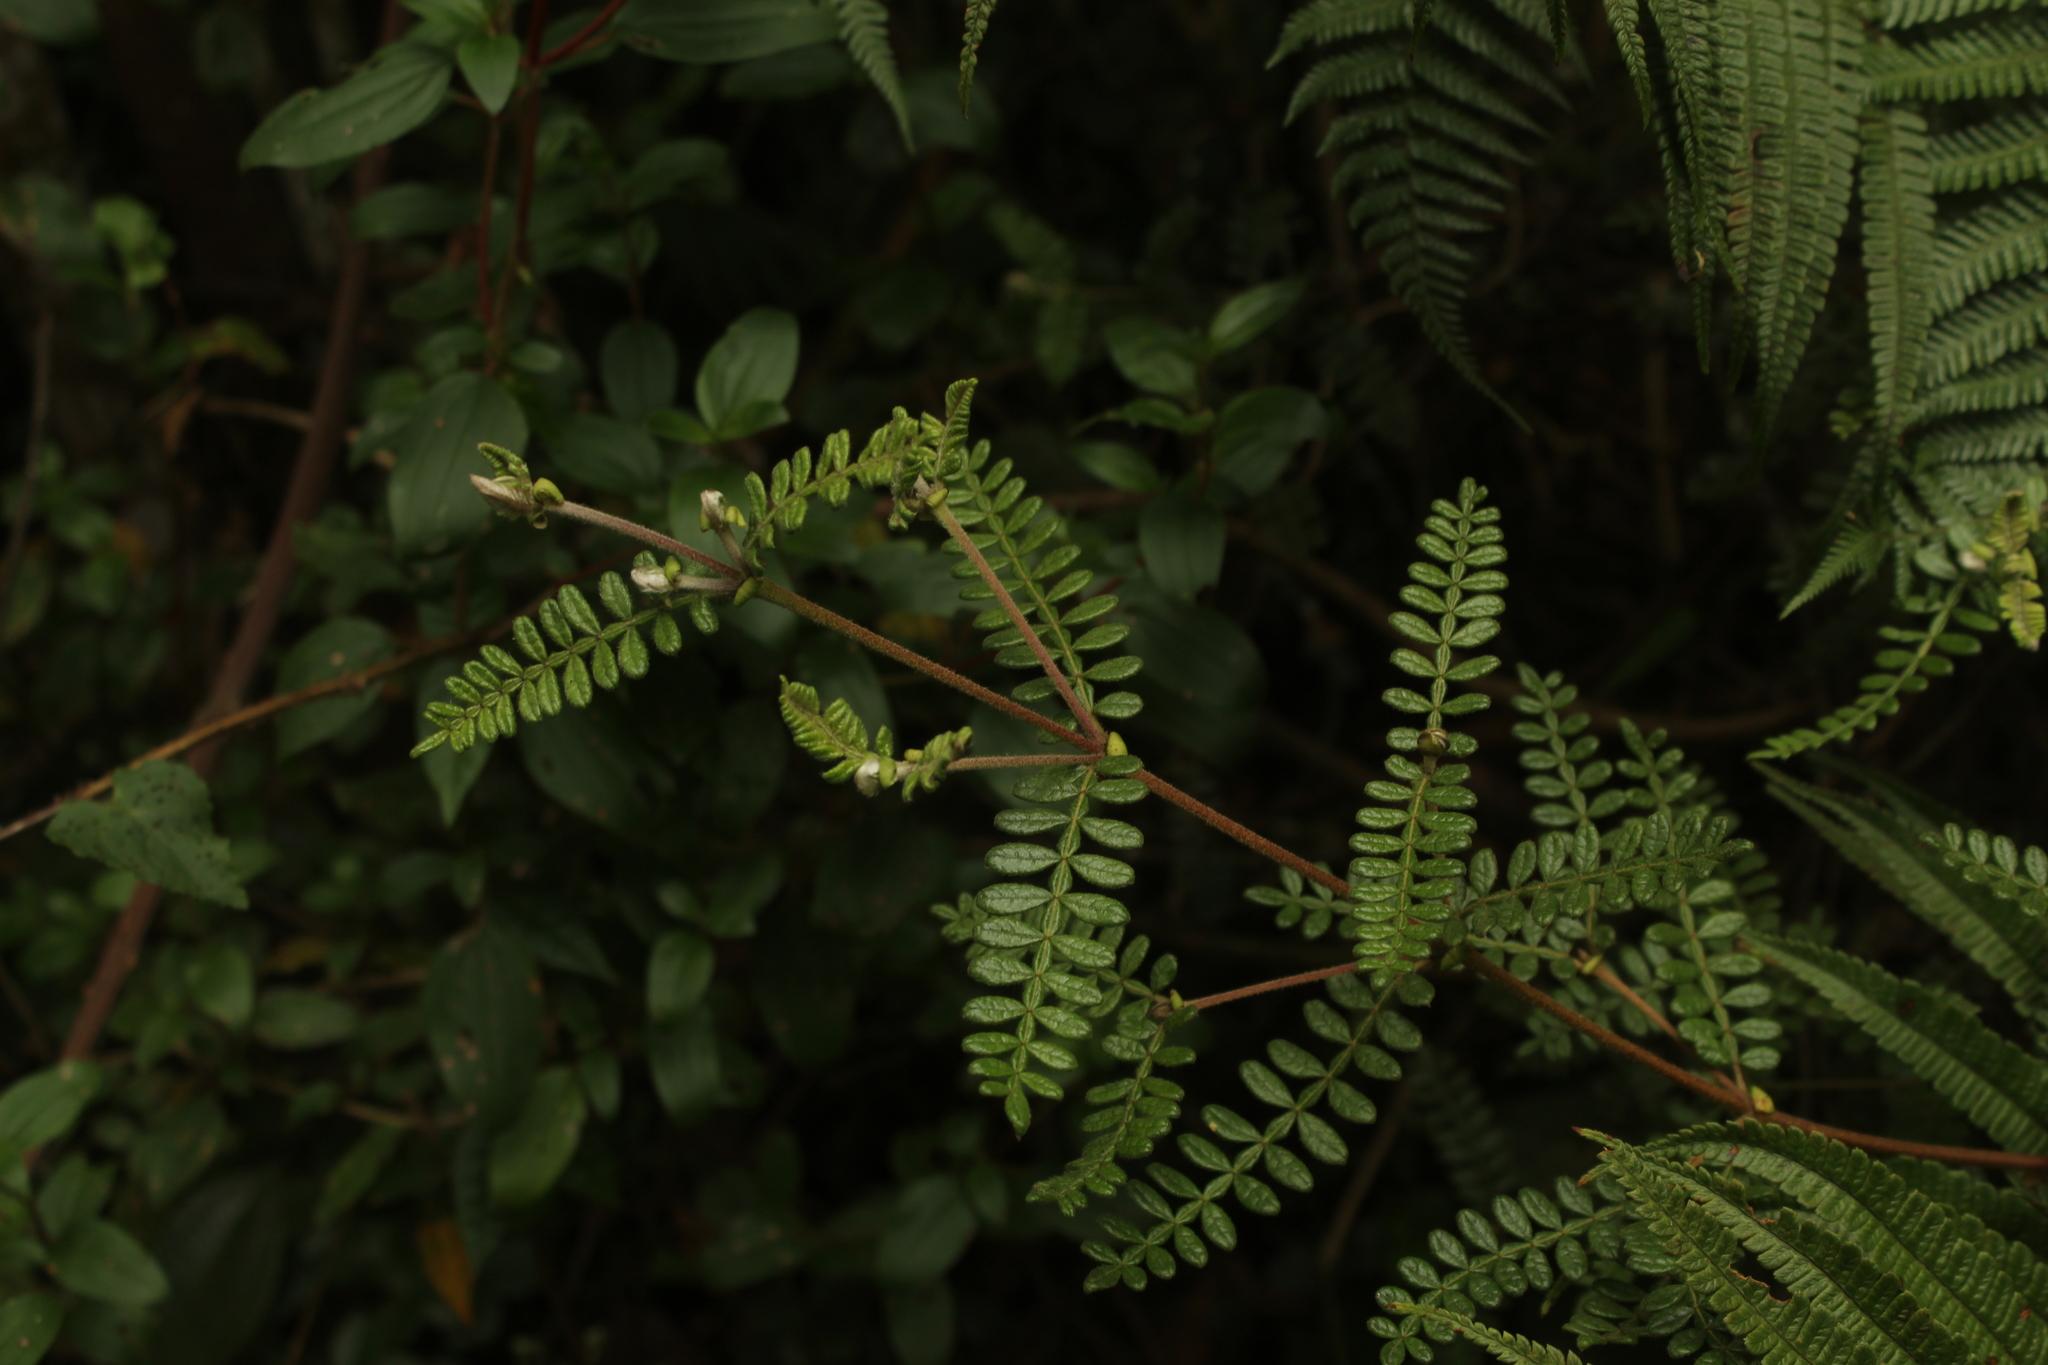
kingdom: Plantae
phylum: Tracheophyta
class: Magnoliopsida
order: Oxalidales
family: Cunoniaceae
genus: Weinmannia
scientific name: Weinmannia tomentosa
